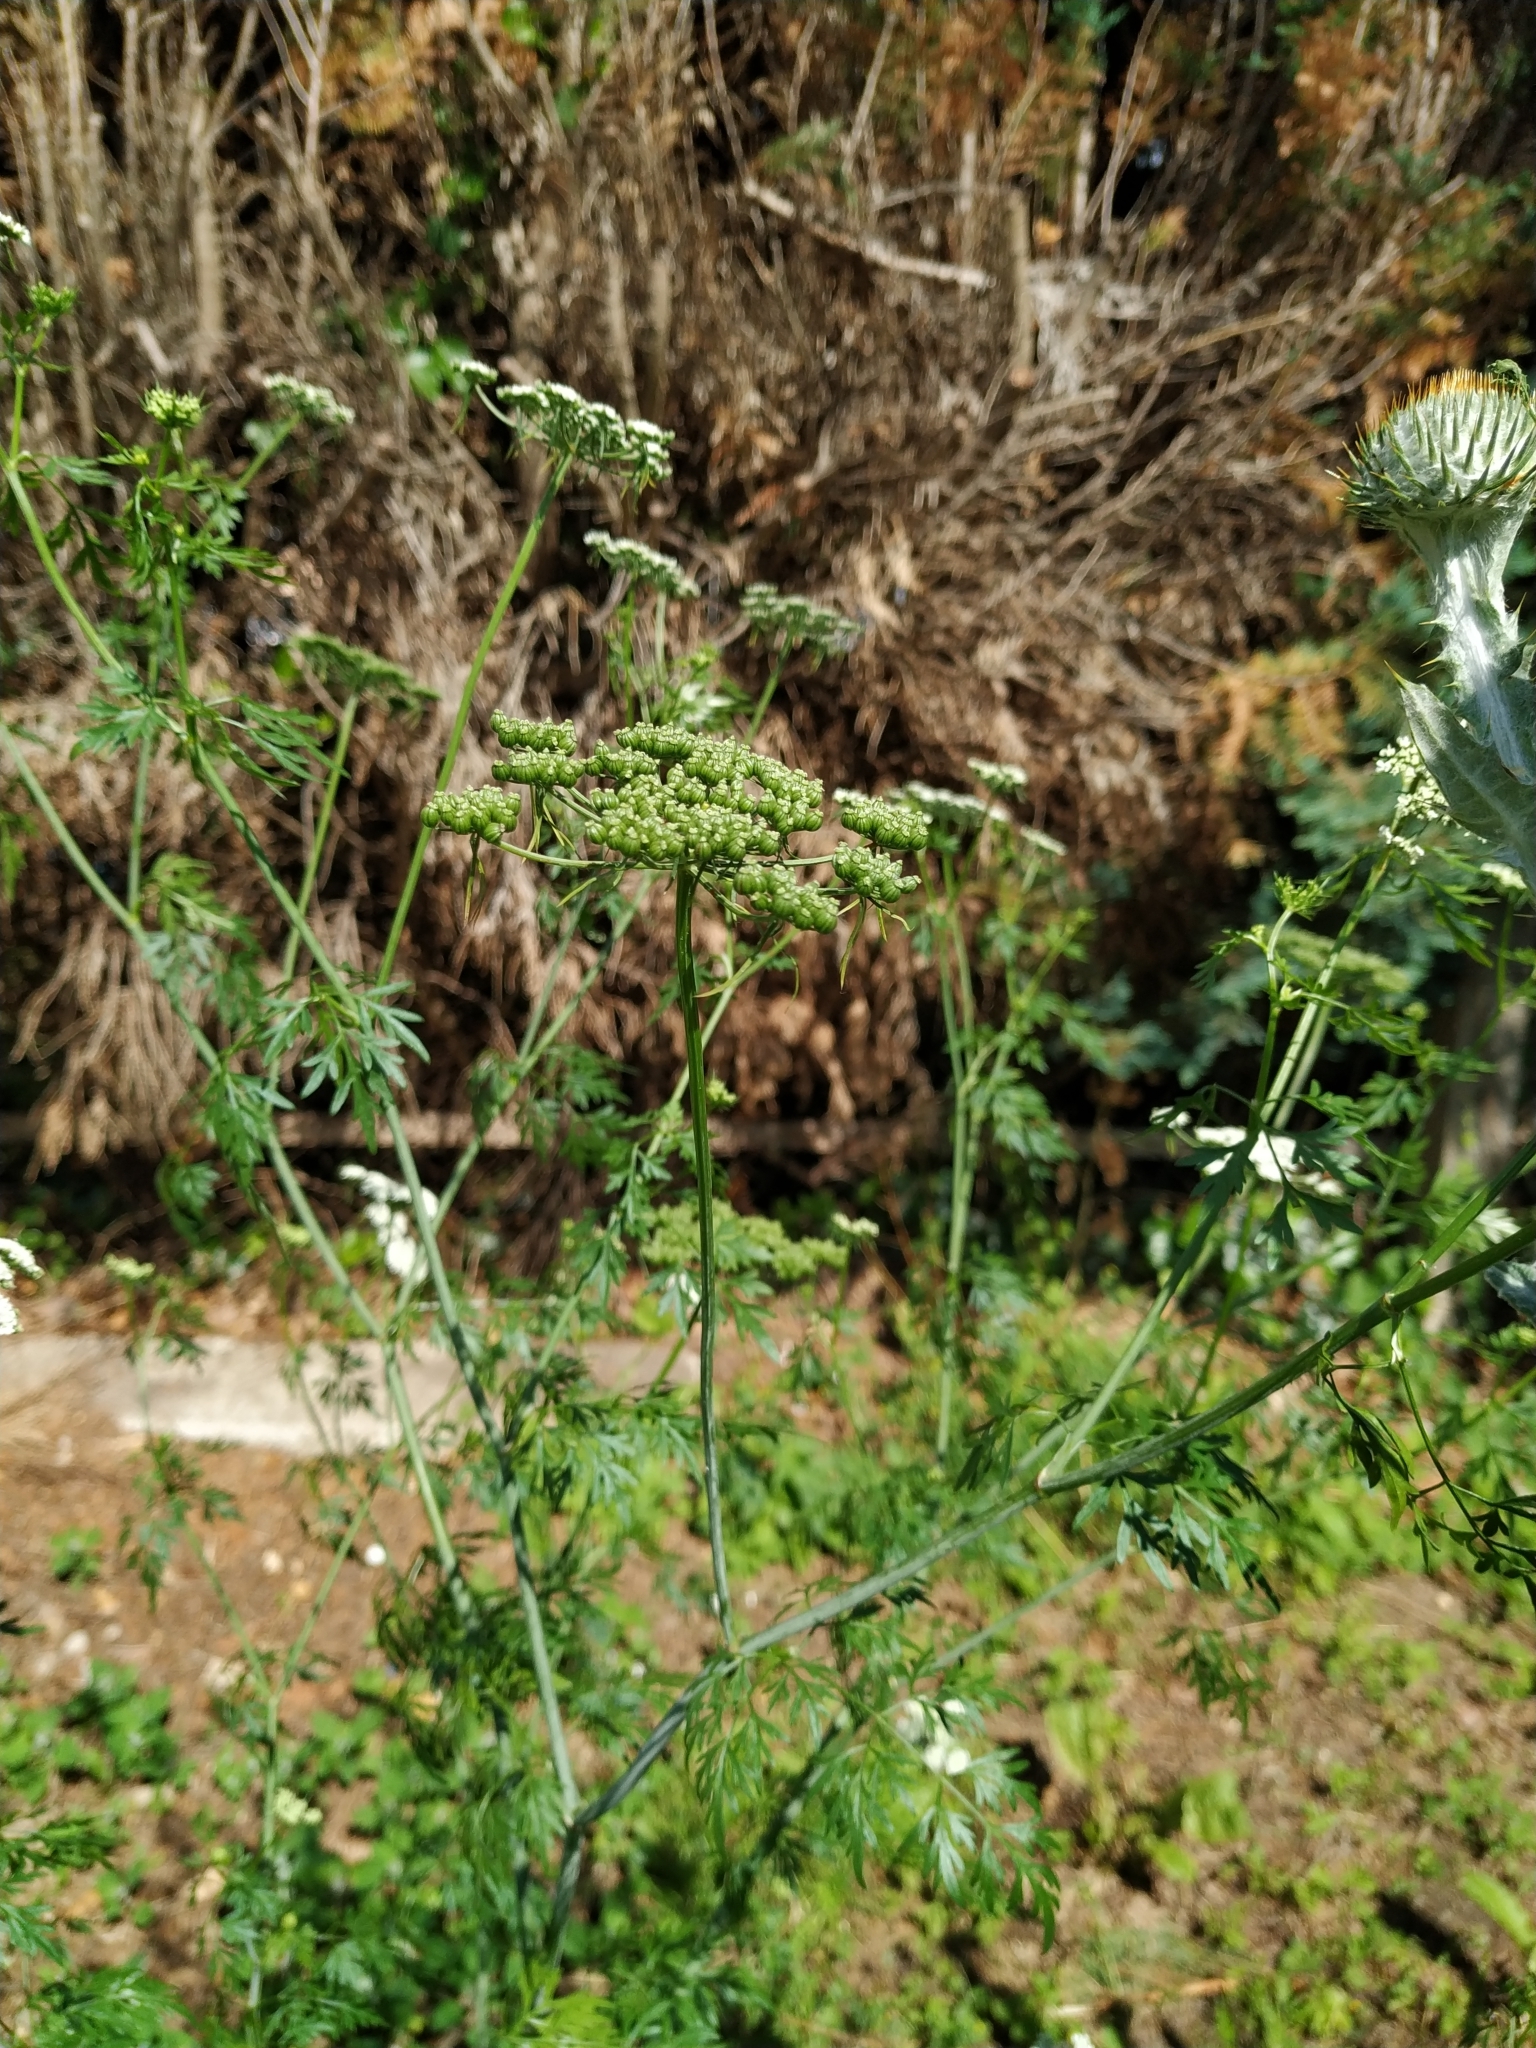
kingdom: Plantae
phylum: Tracheophyta
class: Magnoliopsida
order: Apiales
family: Apiaceae
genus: Aethusa
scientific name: Aethusa cynapium
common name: Fool's parsley
